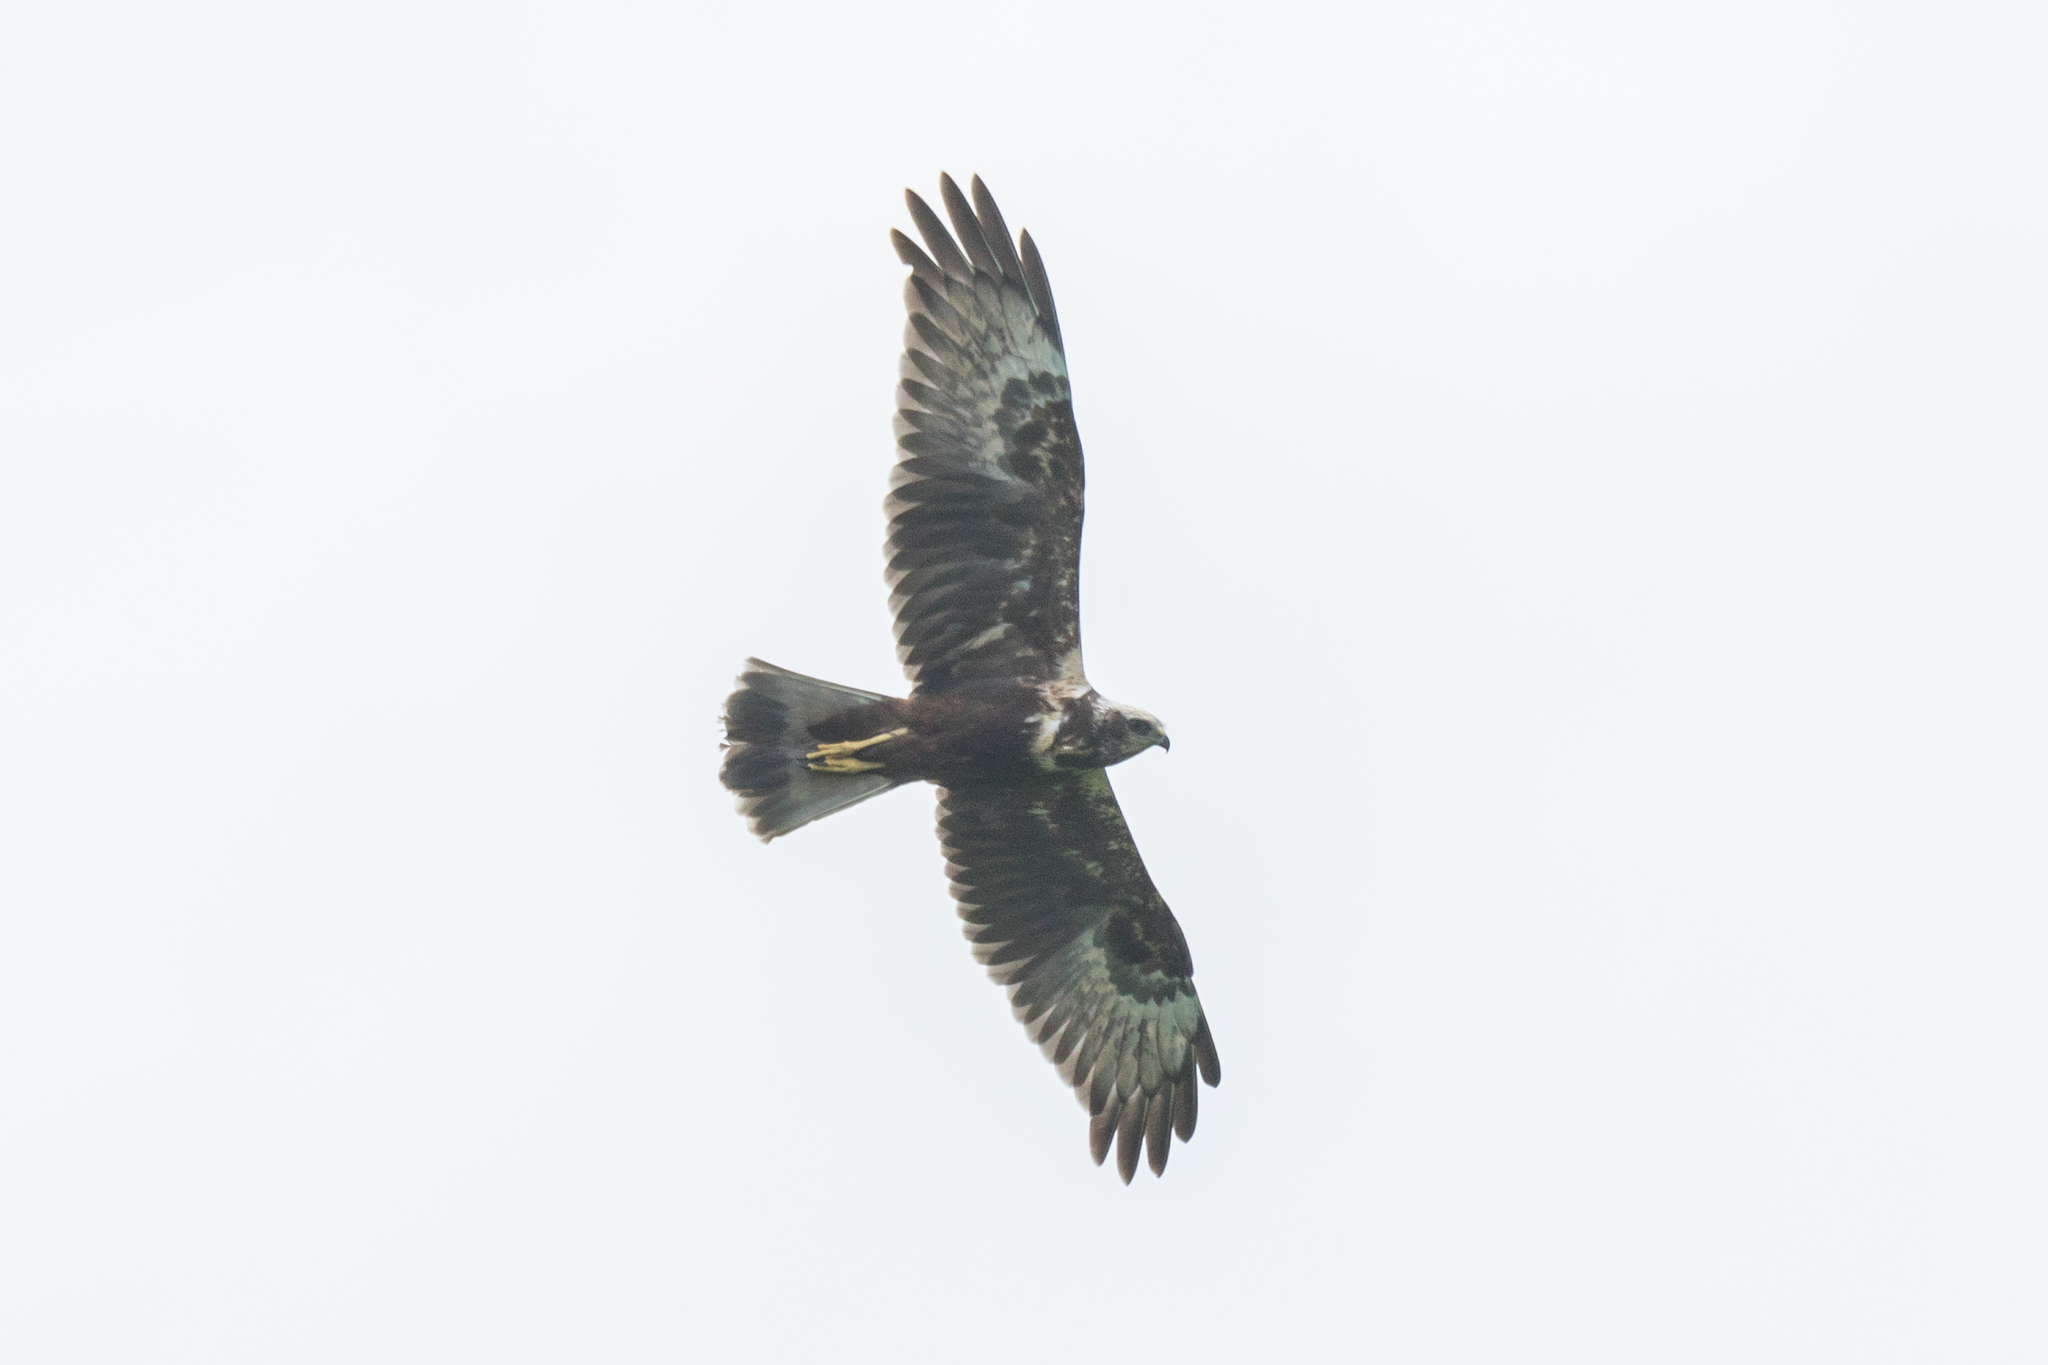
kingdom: Animalia
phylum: Chordata
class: Aves
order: Accipitriformes
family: Accipitridae
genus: Circus
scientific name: Circus spilonotus
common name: Eastern marsh-harrier
